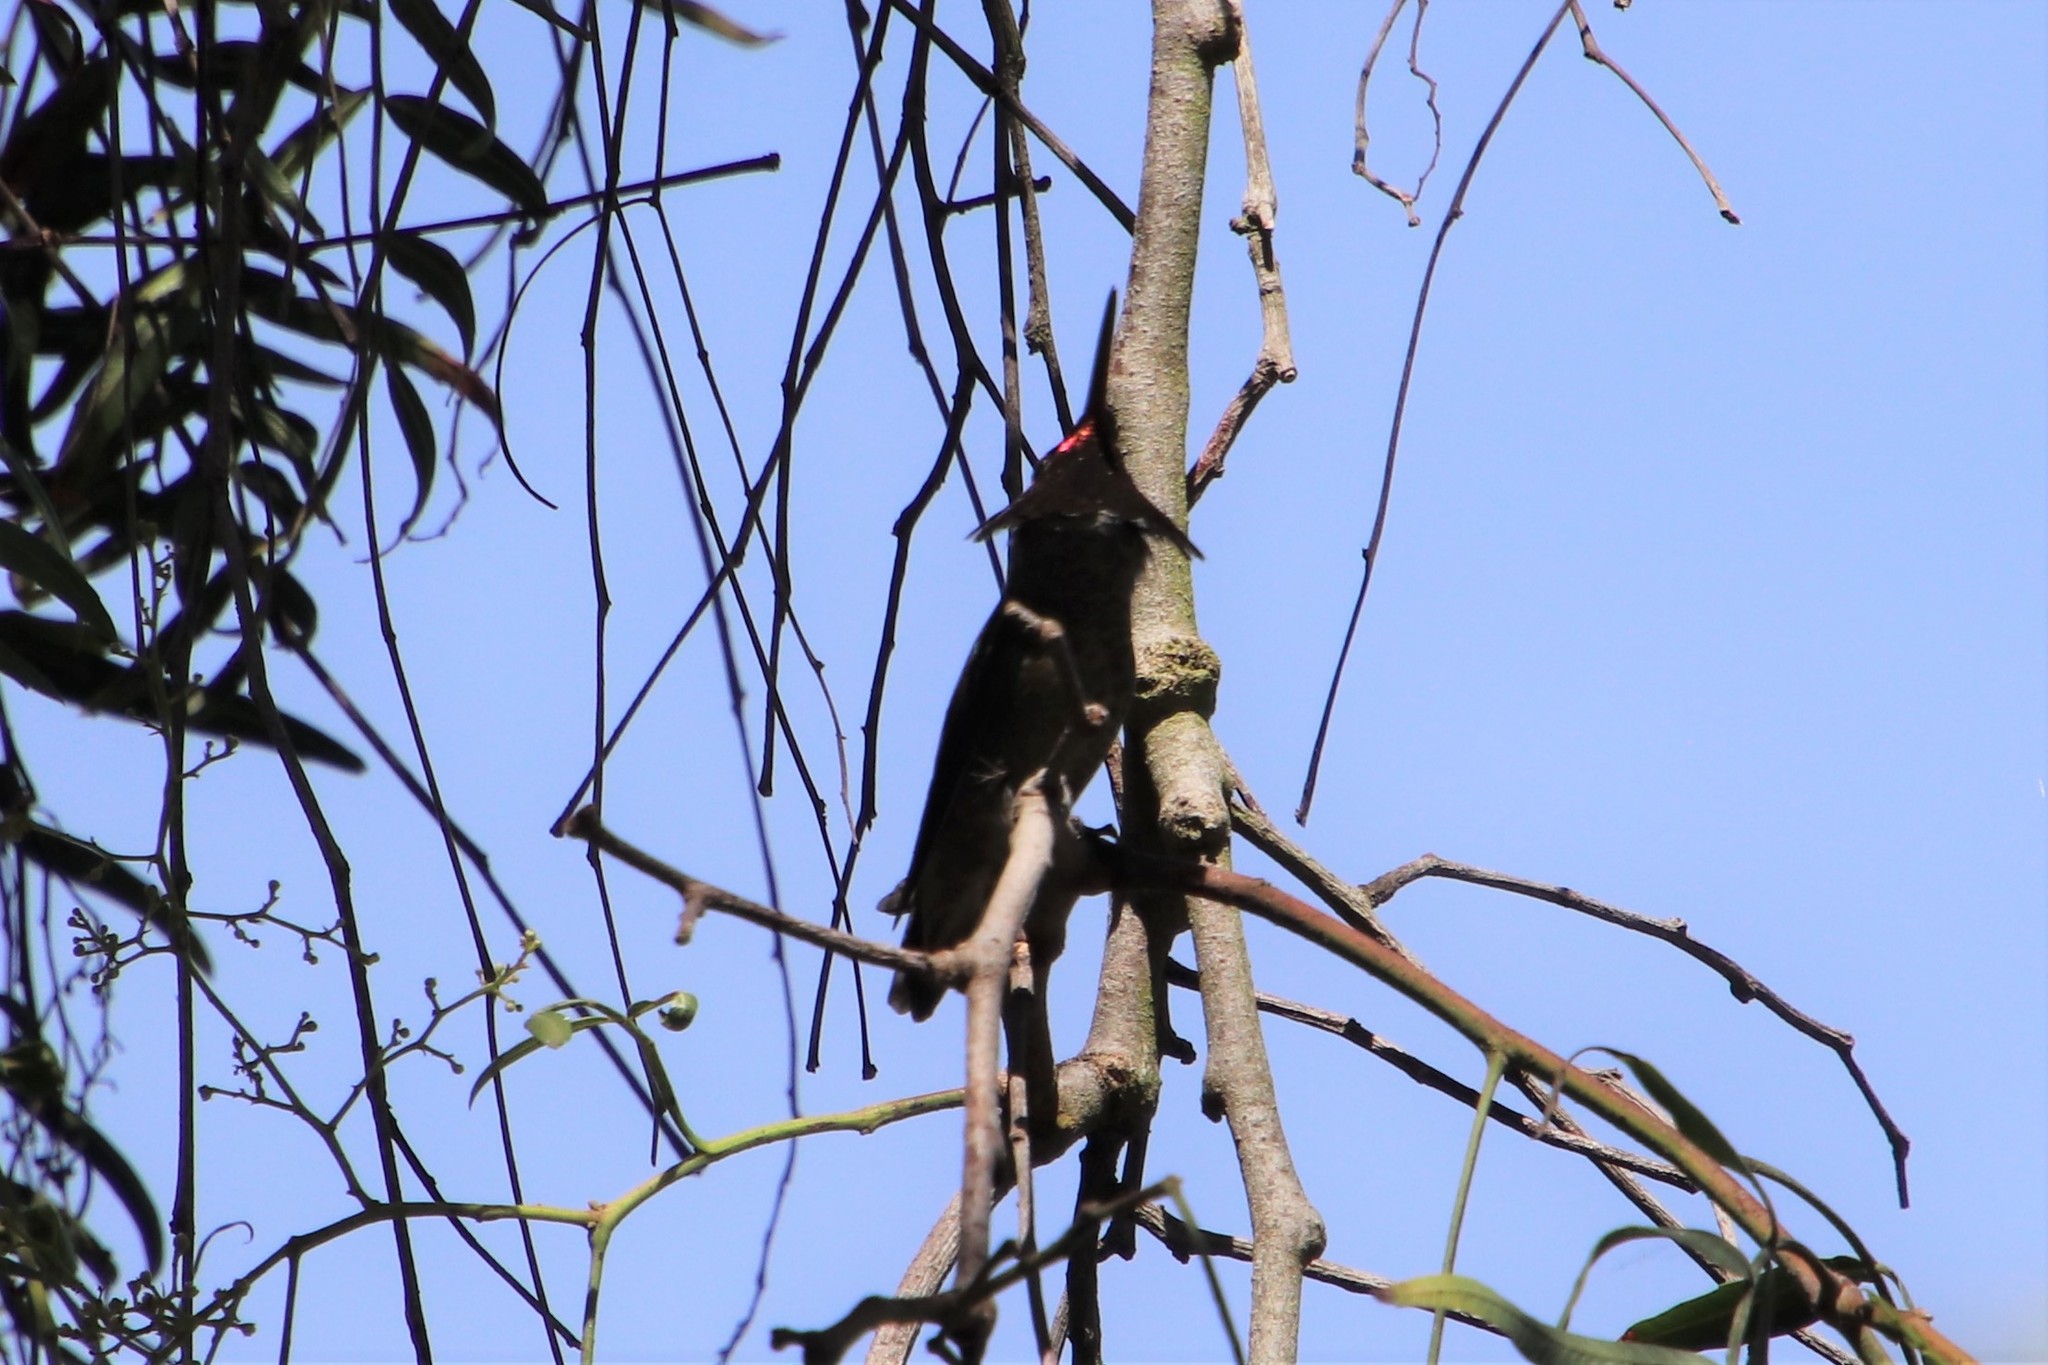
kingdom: Animalia
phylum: Chordata
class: Aves
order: Apodiformes
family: Trochilidae
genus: Calypte
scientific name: Calypte anna
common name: Anna's hummingbird
